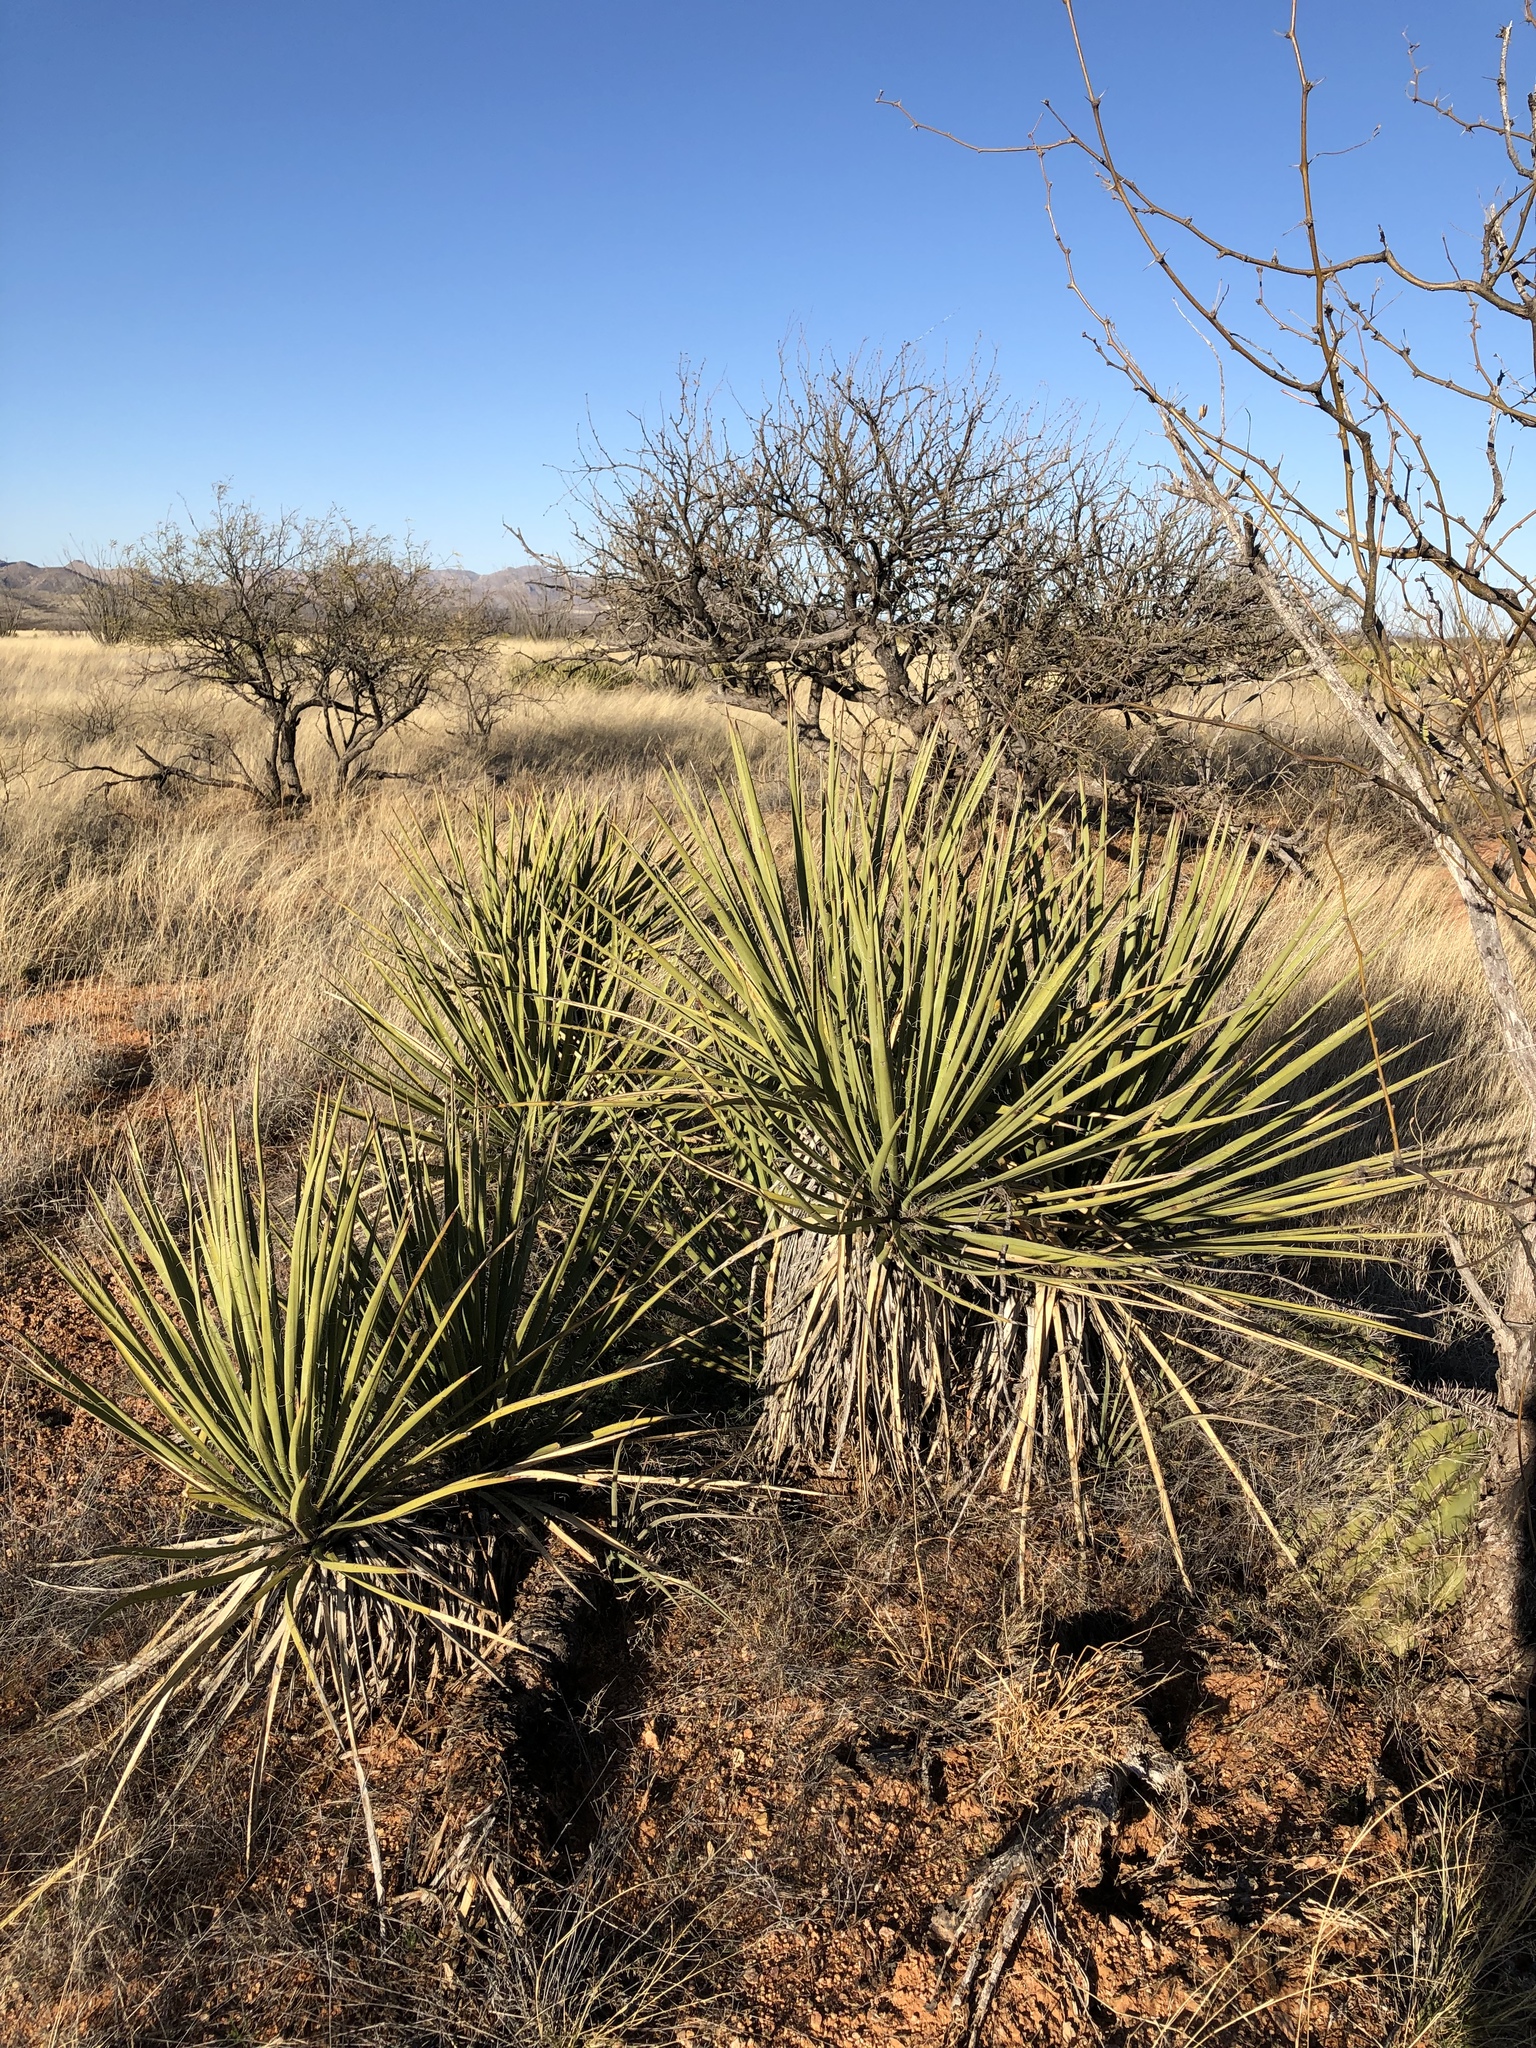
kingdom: Plantae
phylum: Tracheophyta
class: Liliopsida
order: Asparagales
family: Asparagaceae
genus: Yucca
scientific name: Yucca baccata
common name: Banana yucca
